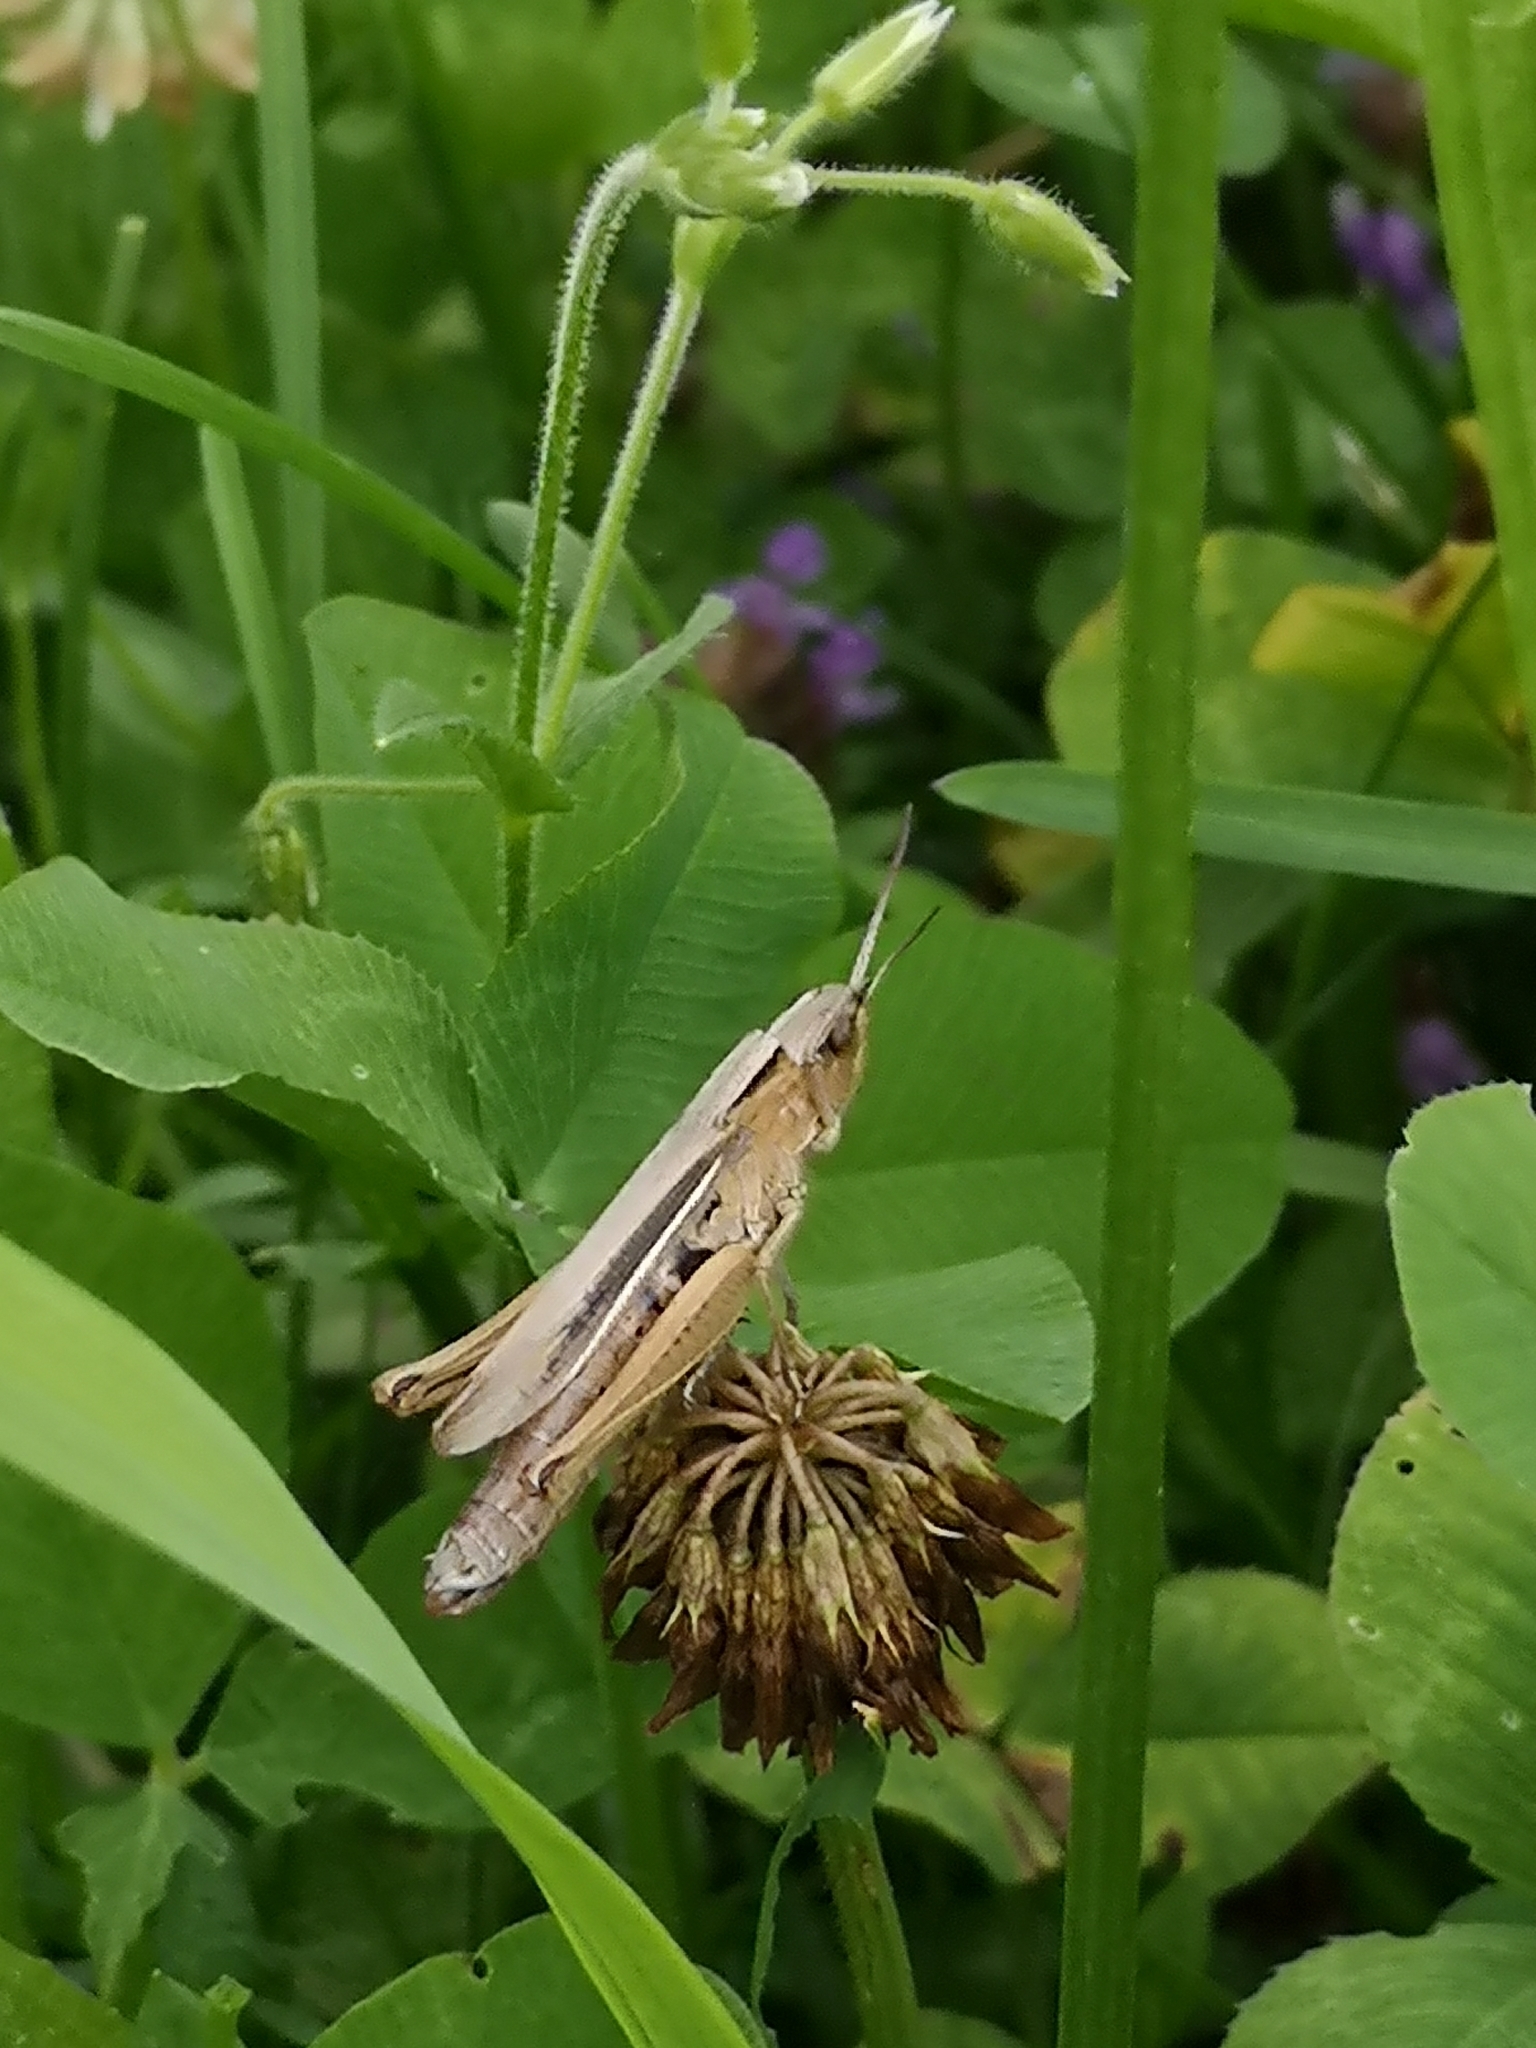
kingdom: Animalia
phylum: Arthropoda
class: Insecta
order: Orthoptera
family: Acrididae
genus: Chorthippus
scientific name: Chorthippus albomarginatus
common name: Lesser marsh grasshopper
